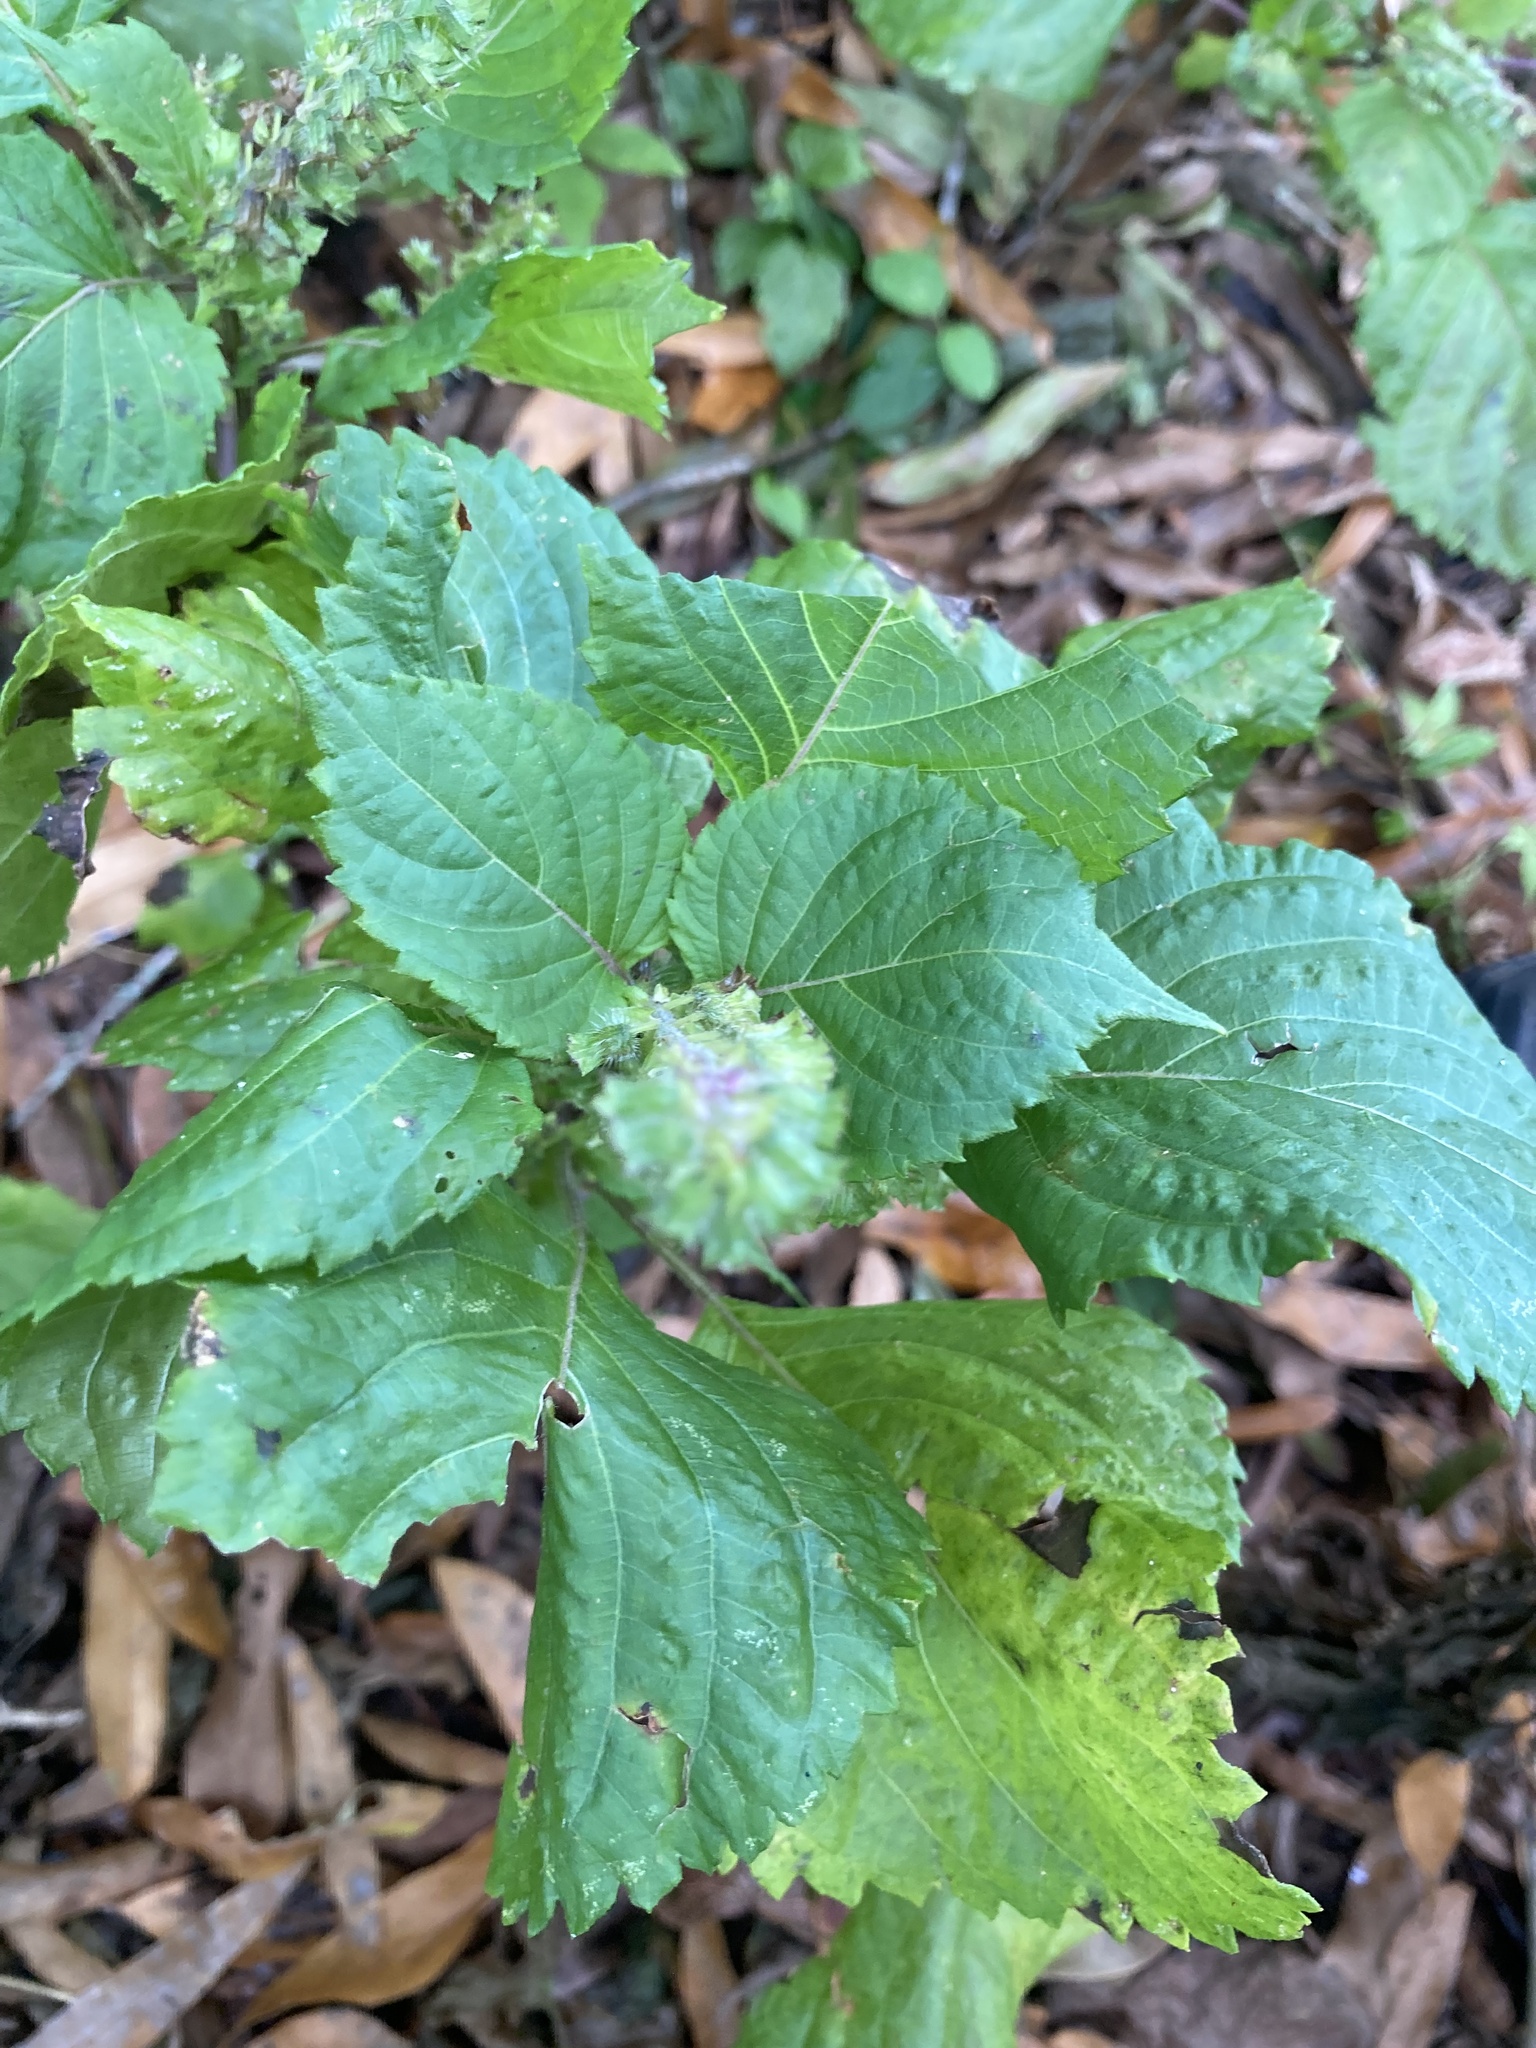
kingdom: Plantae
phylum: Tracheophyta
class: Magnoliopsida
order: Lamiales
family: Lamiaceae
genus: Collinsonia
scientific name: Collinsonia canadensis
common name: Northern horsebalm
